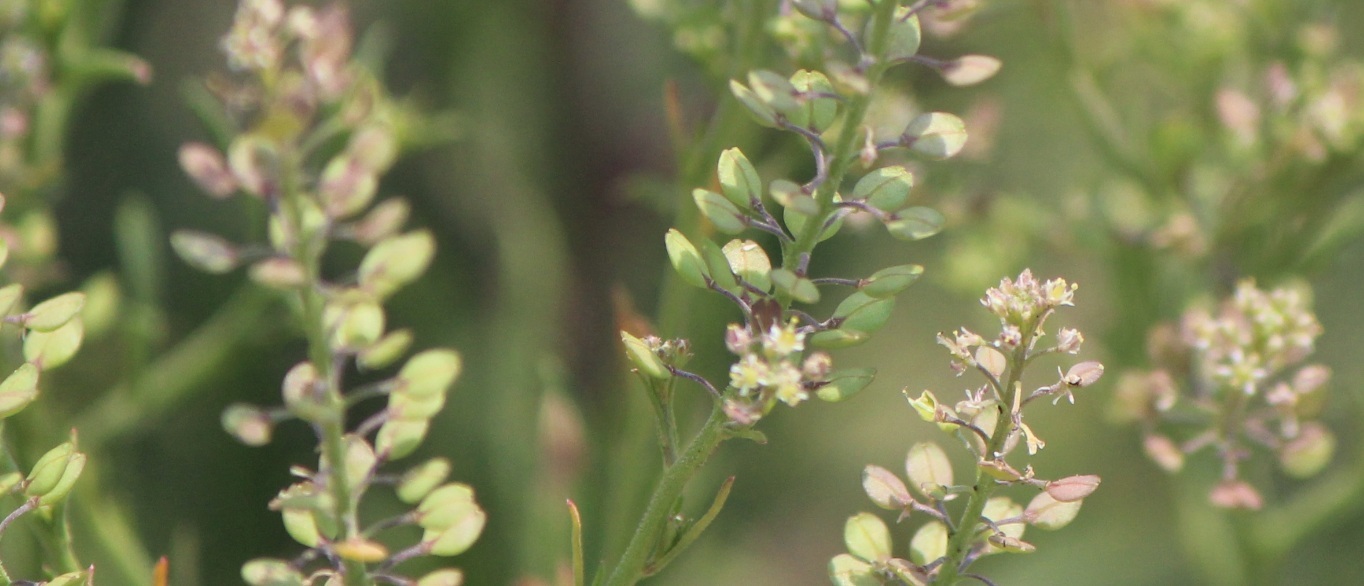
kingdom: Plantae
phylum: Tracheophyta
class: Magnoliopsida
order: Brassicales
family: Brassicaceae
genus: Lepidium
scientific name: Lepidium virginicum
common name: Least pepperwort
